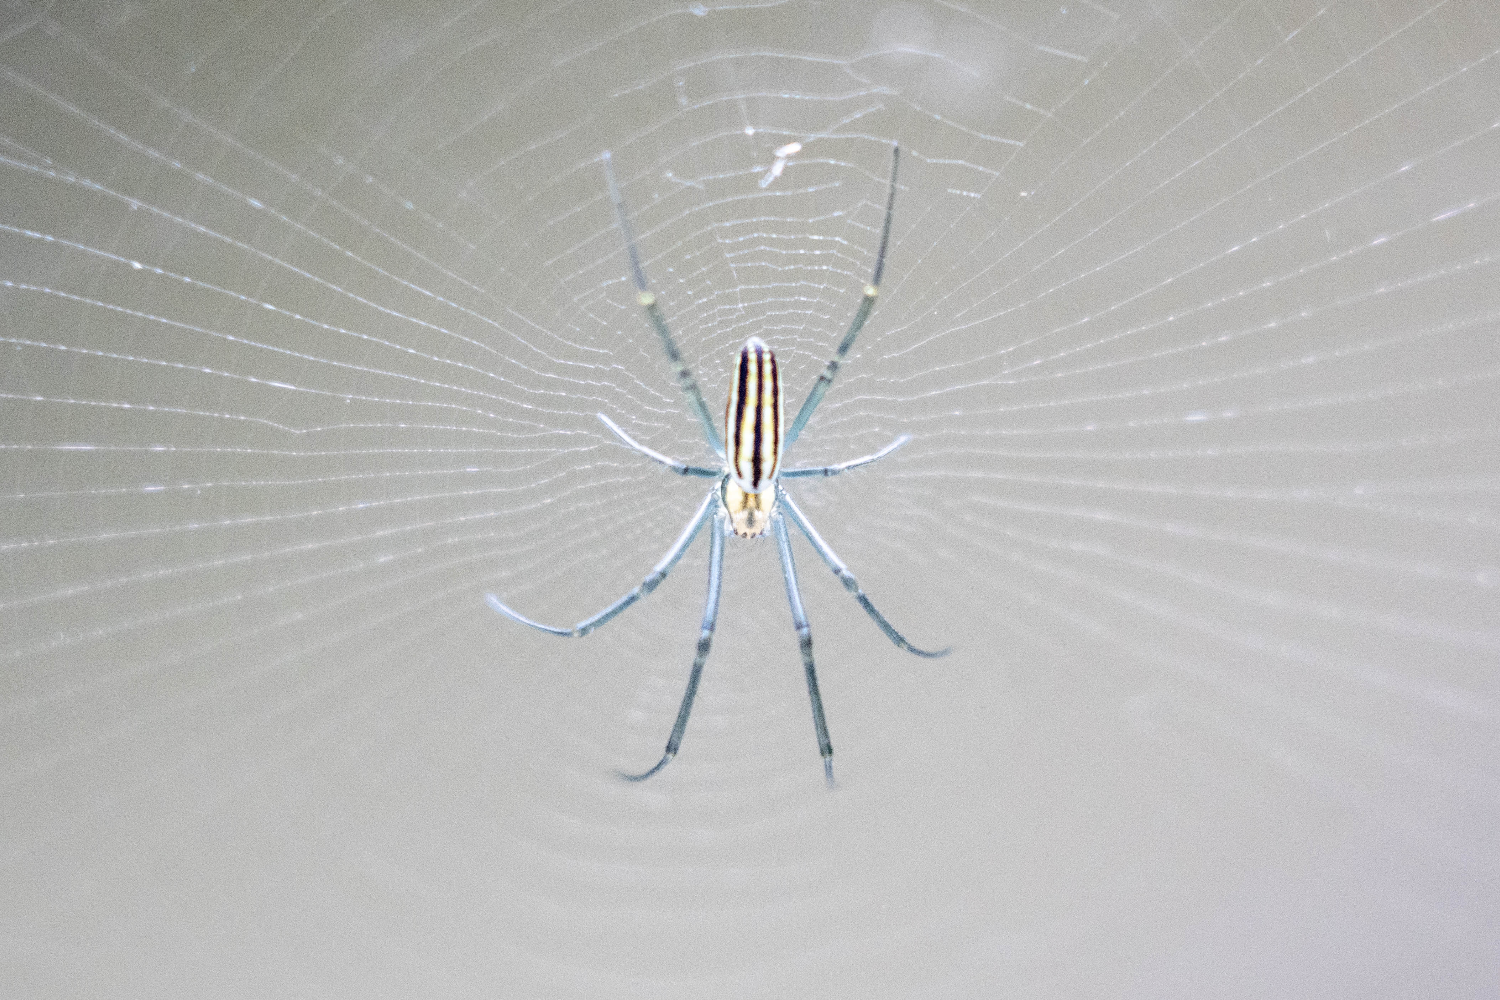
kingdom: Animalia
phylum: Arthropoda
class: Arachnida
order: Araneae
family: Araneidae
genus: Nephila
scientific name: Nephila pilipes
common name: Giant golden orb weaver
